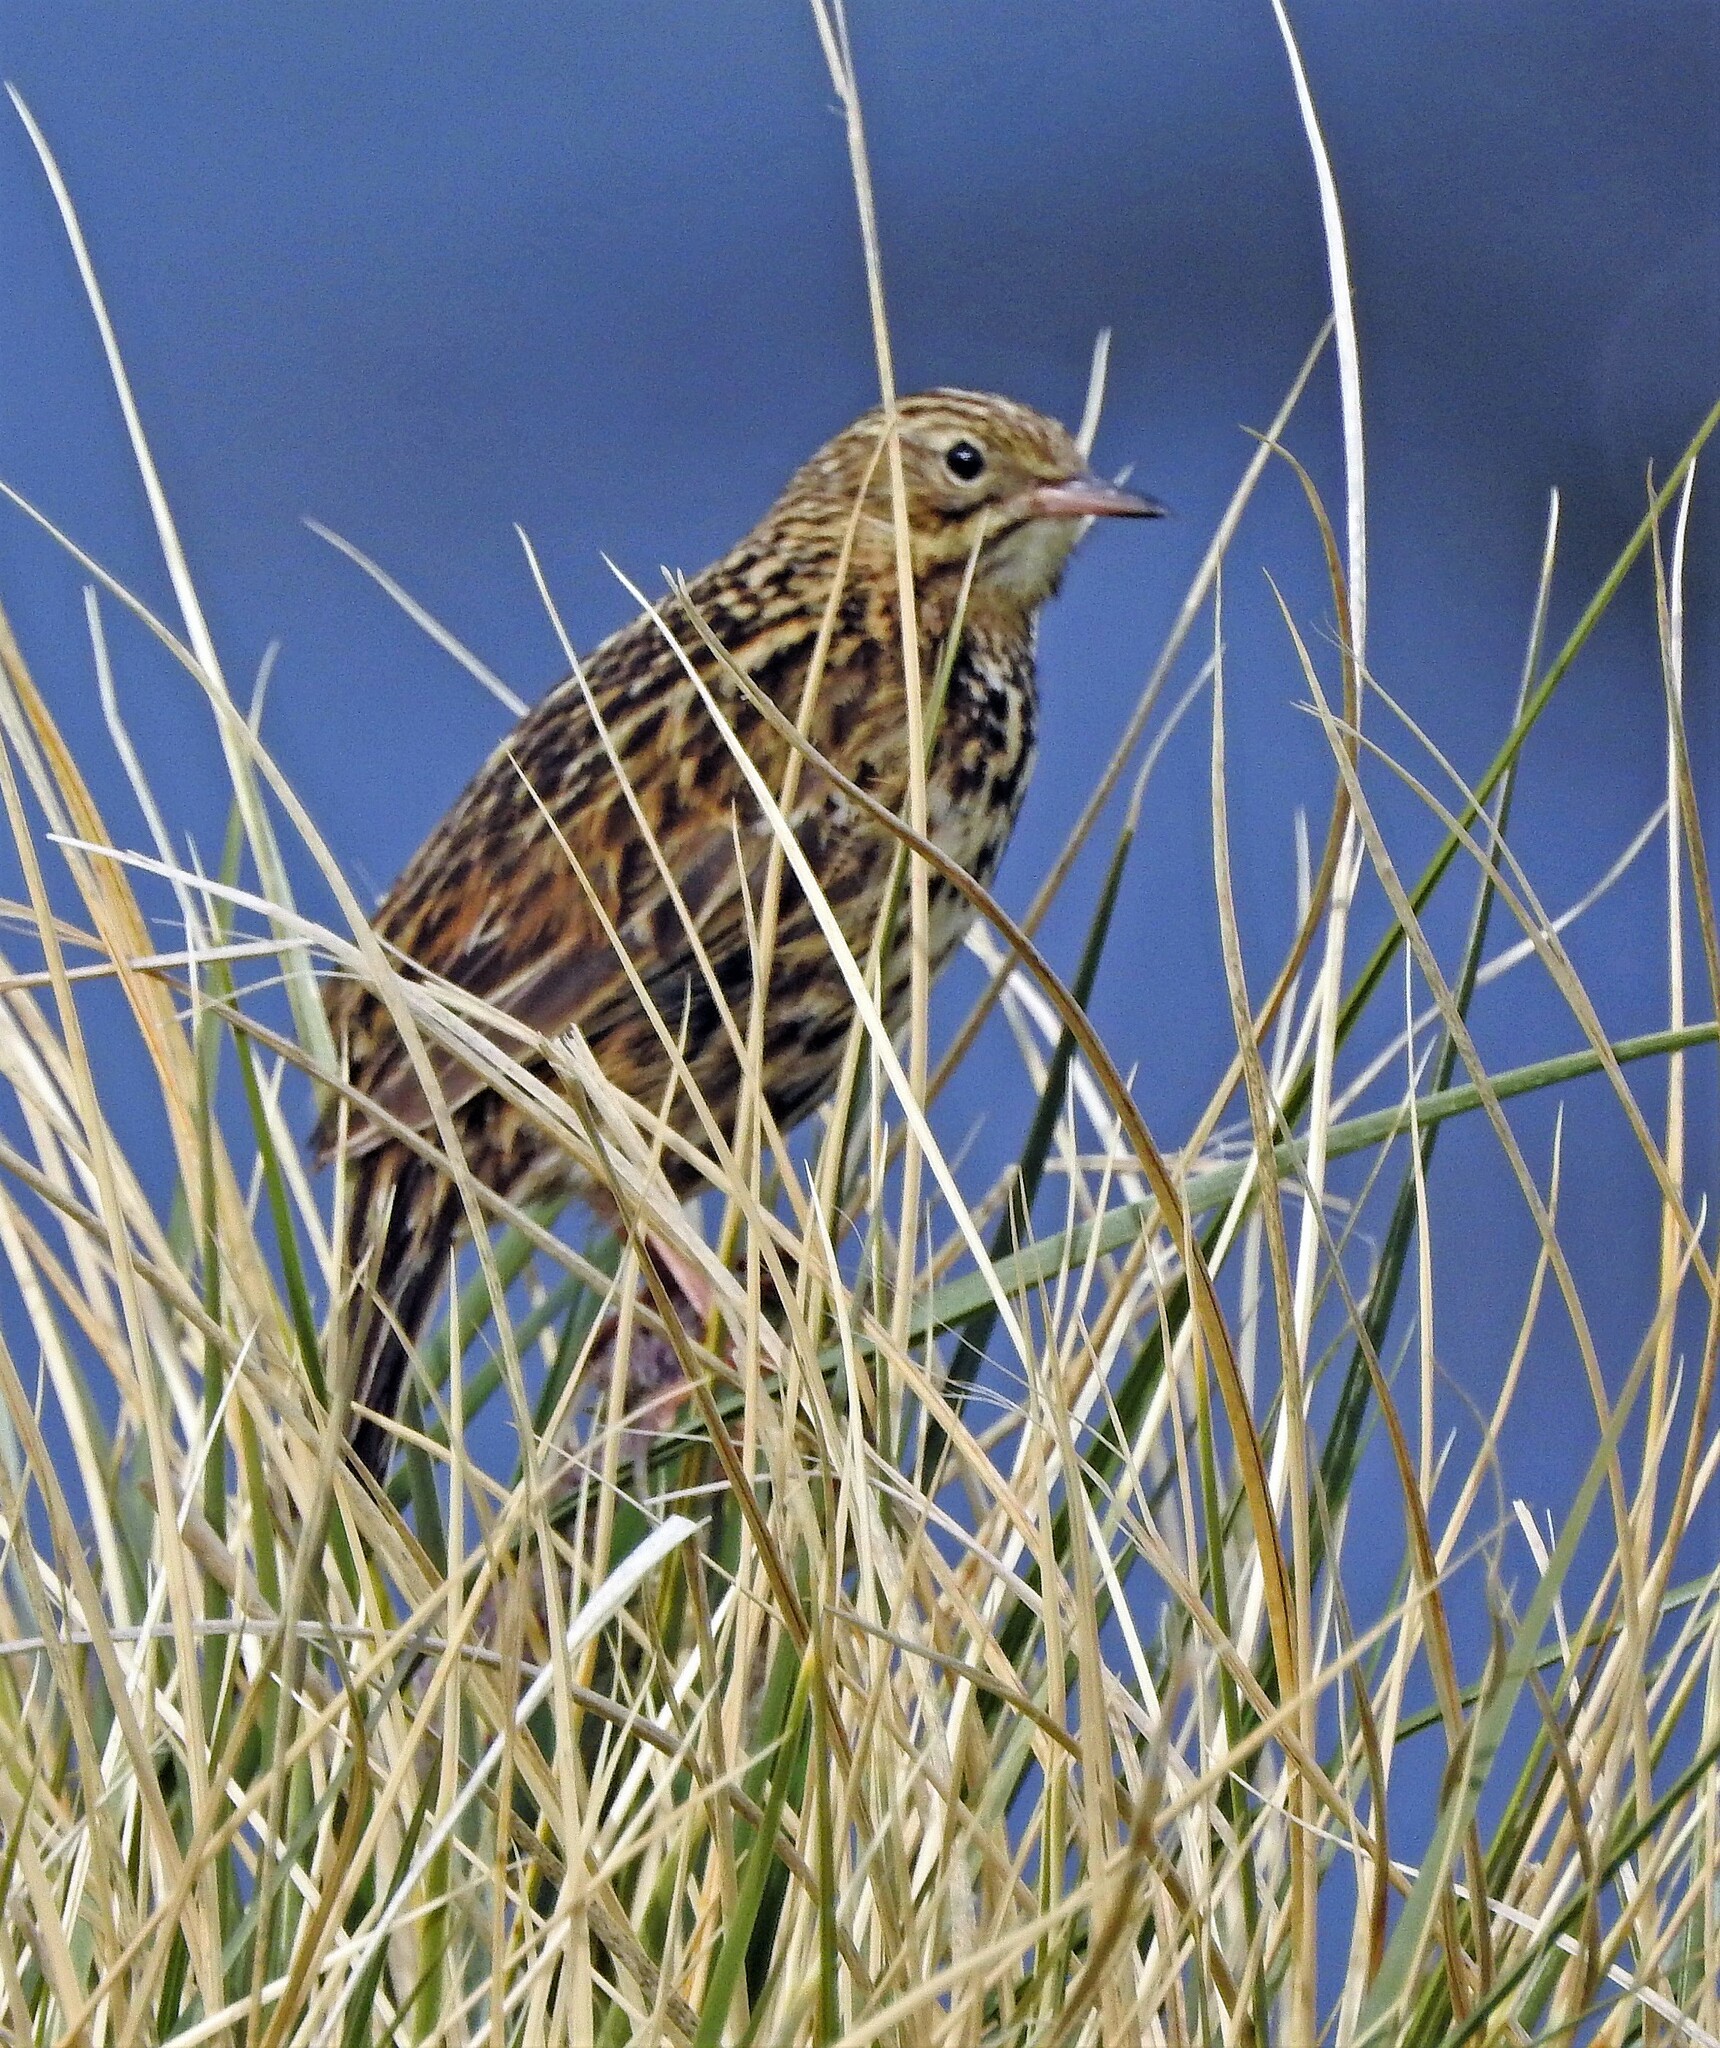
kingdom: Animalia
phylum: Chordata
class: Aves
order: Passeriformes
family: Motacillidae
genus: Anthus
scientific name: Anthus antarcticus
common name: South georgia pipit
